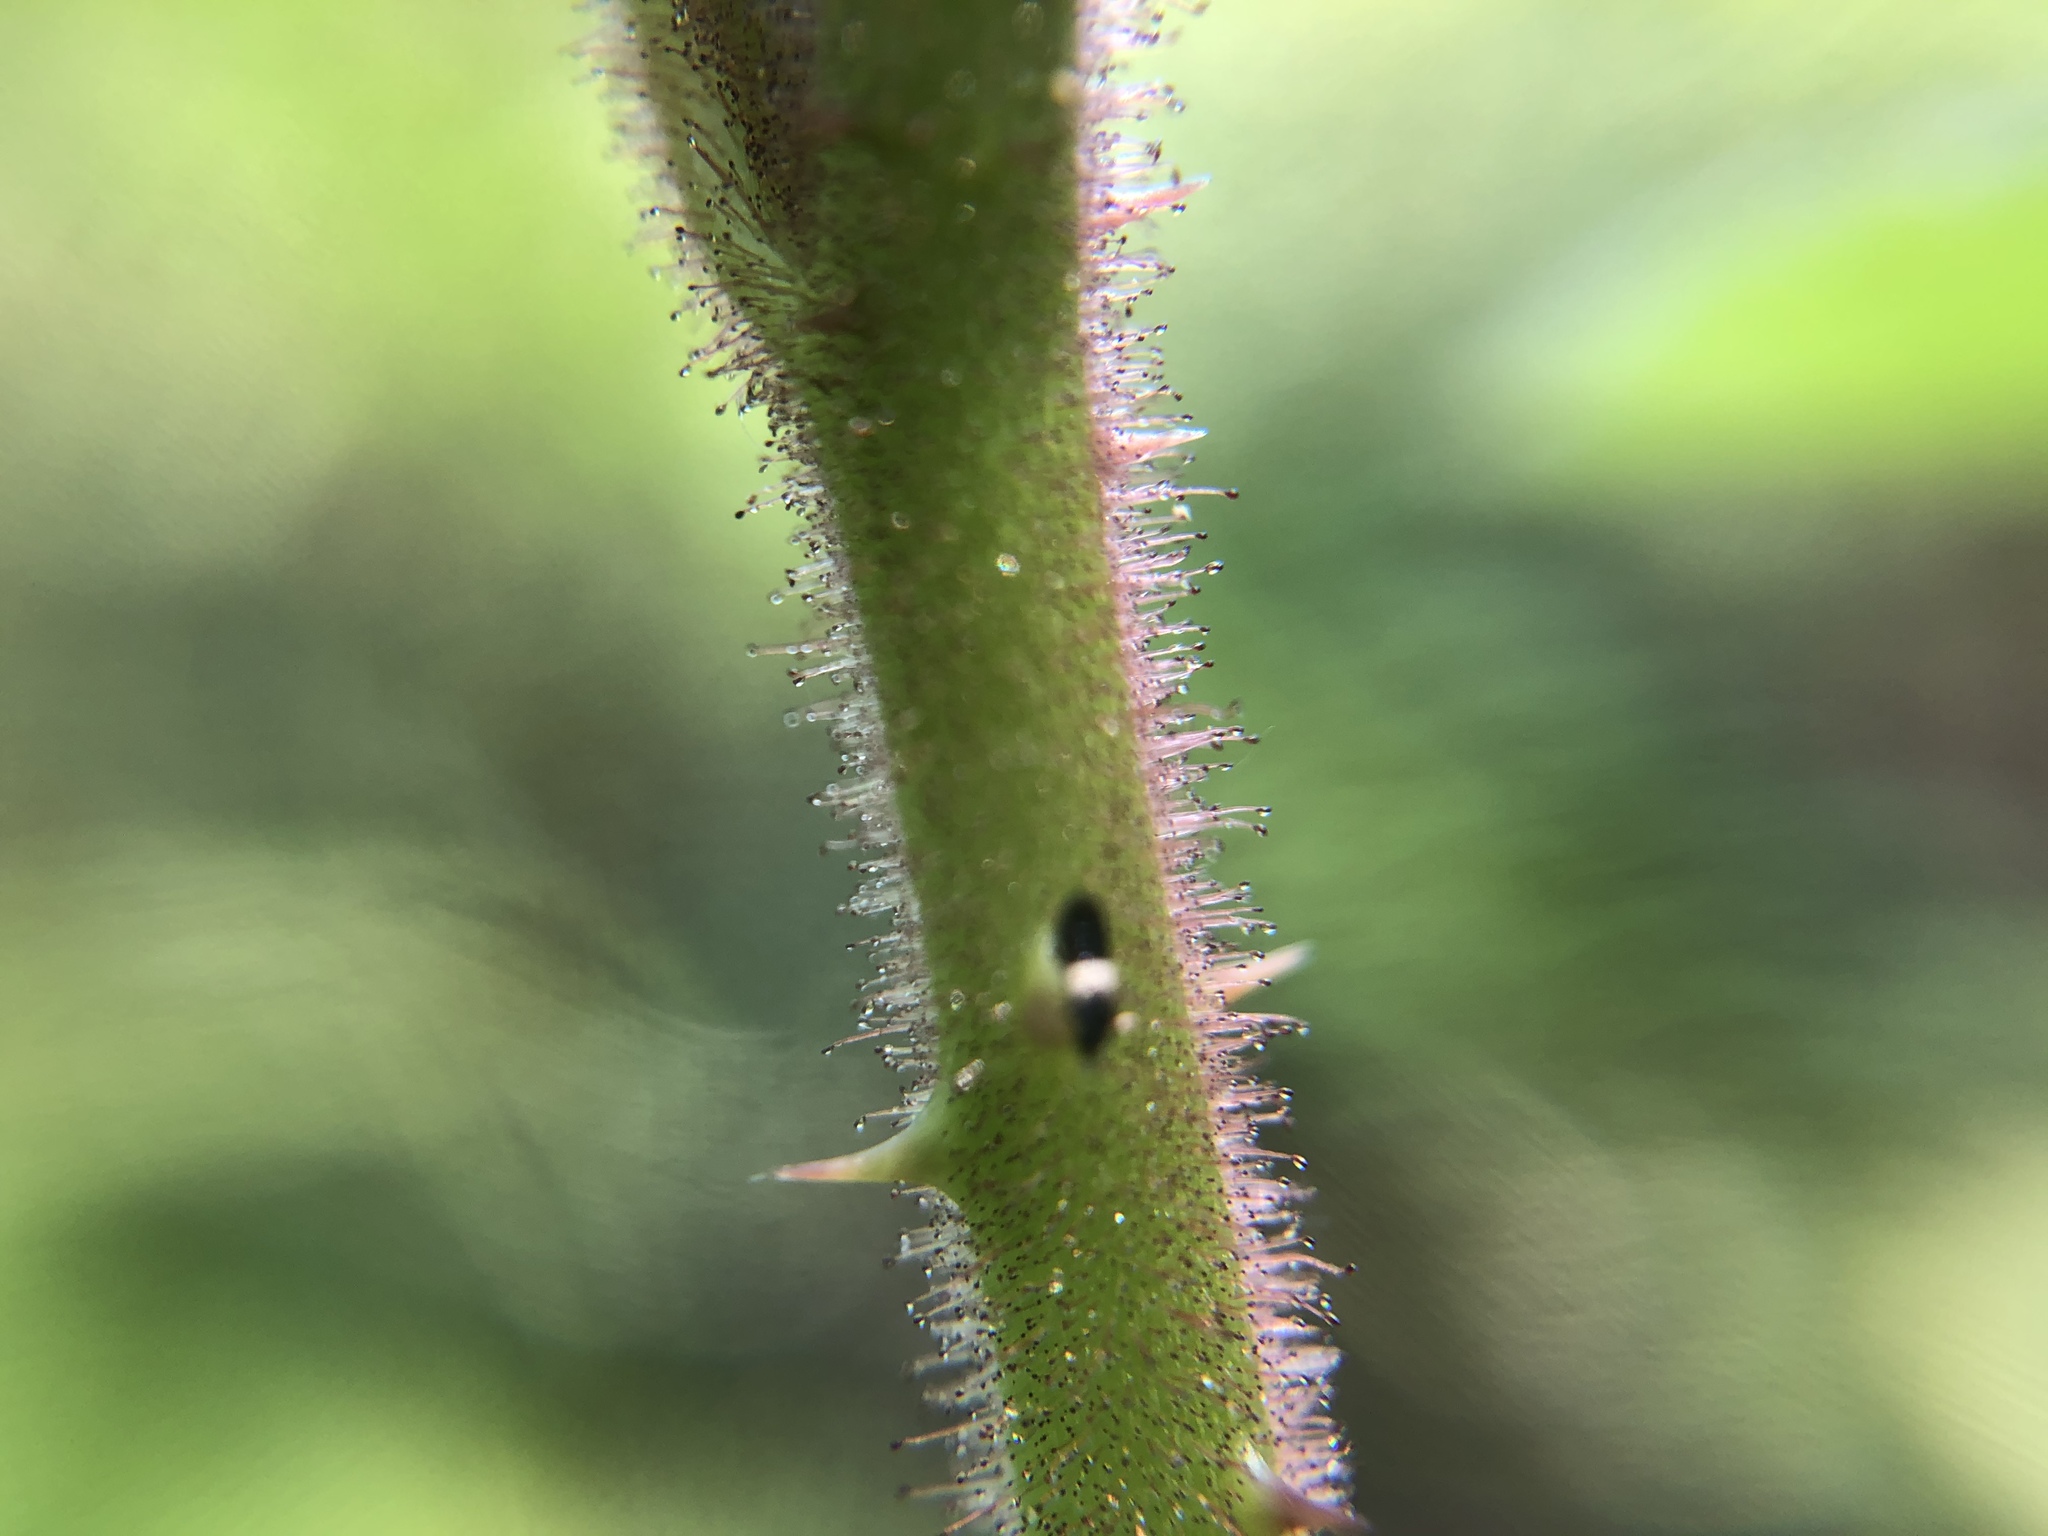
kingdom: Plantae
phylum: Tracheophyta
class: Magnoliopsida
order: Rosales
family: Rosaceae
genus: Rubus
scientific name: Rubus croceacanthus
